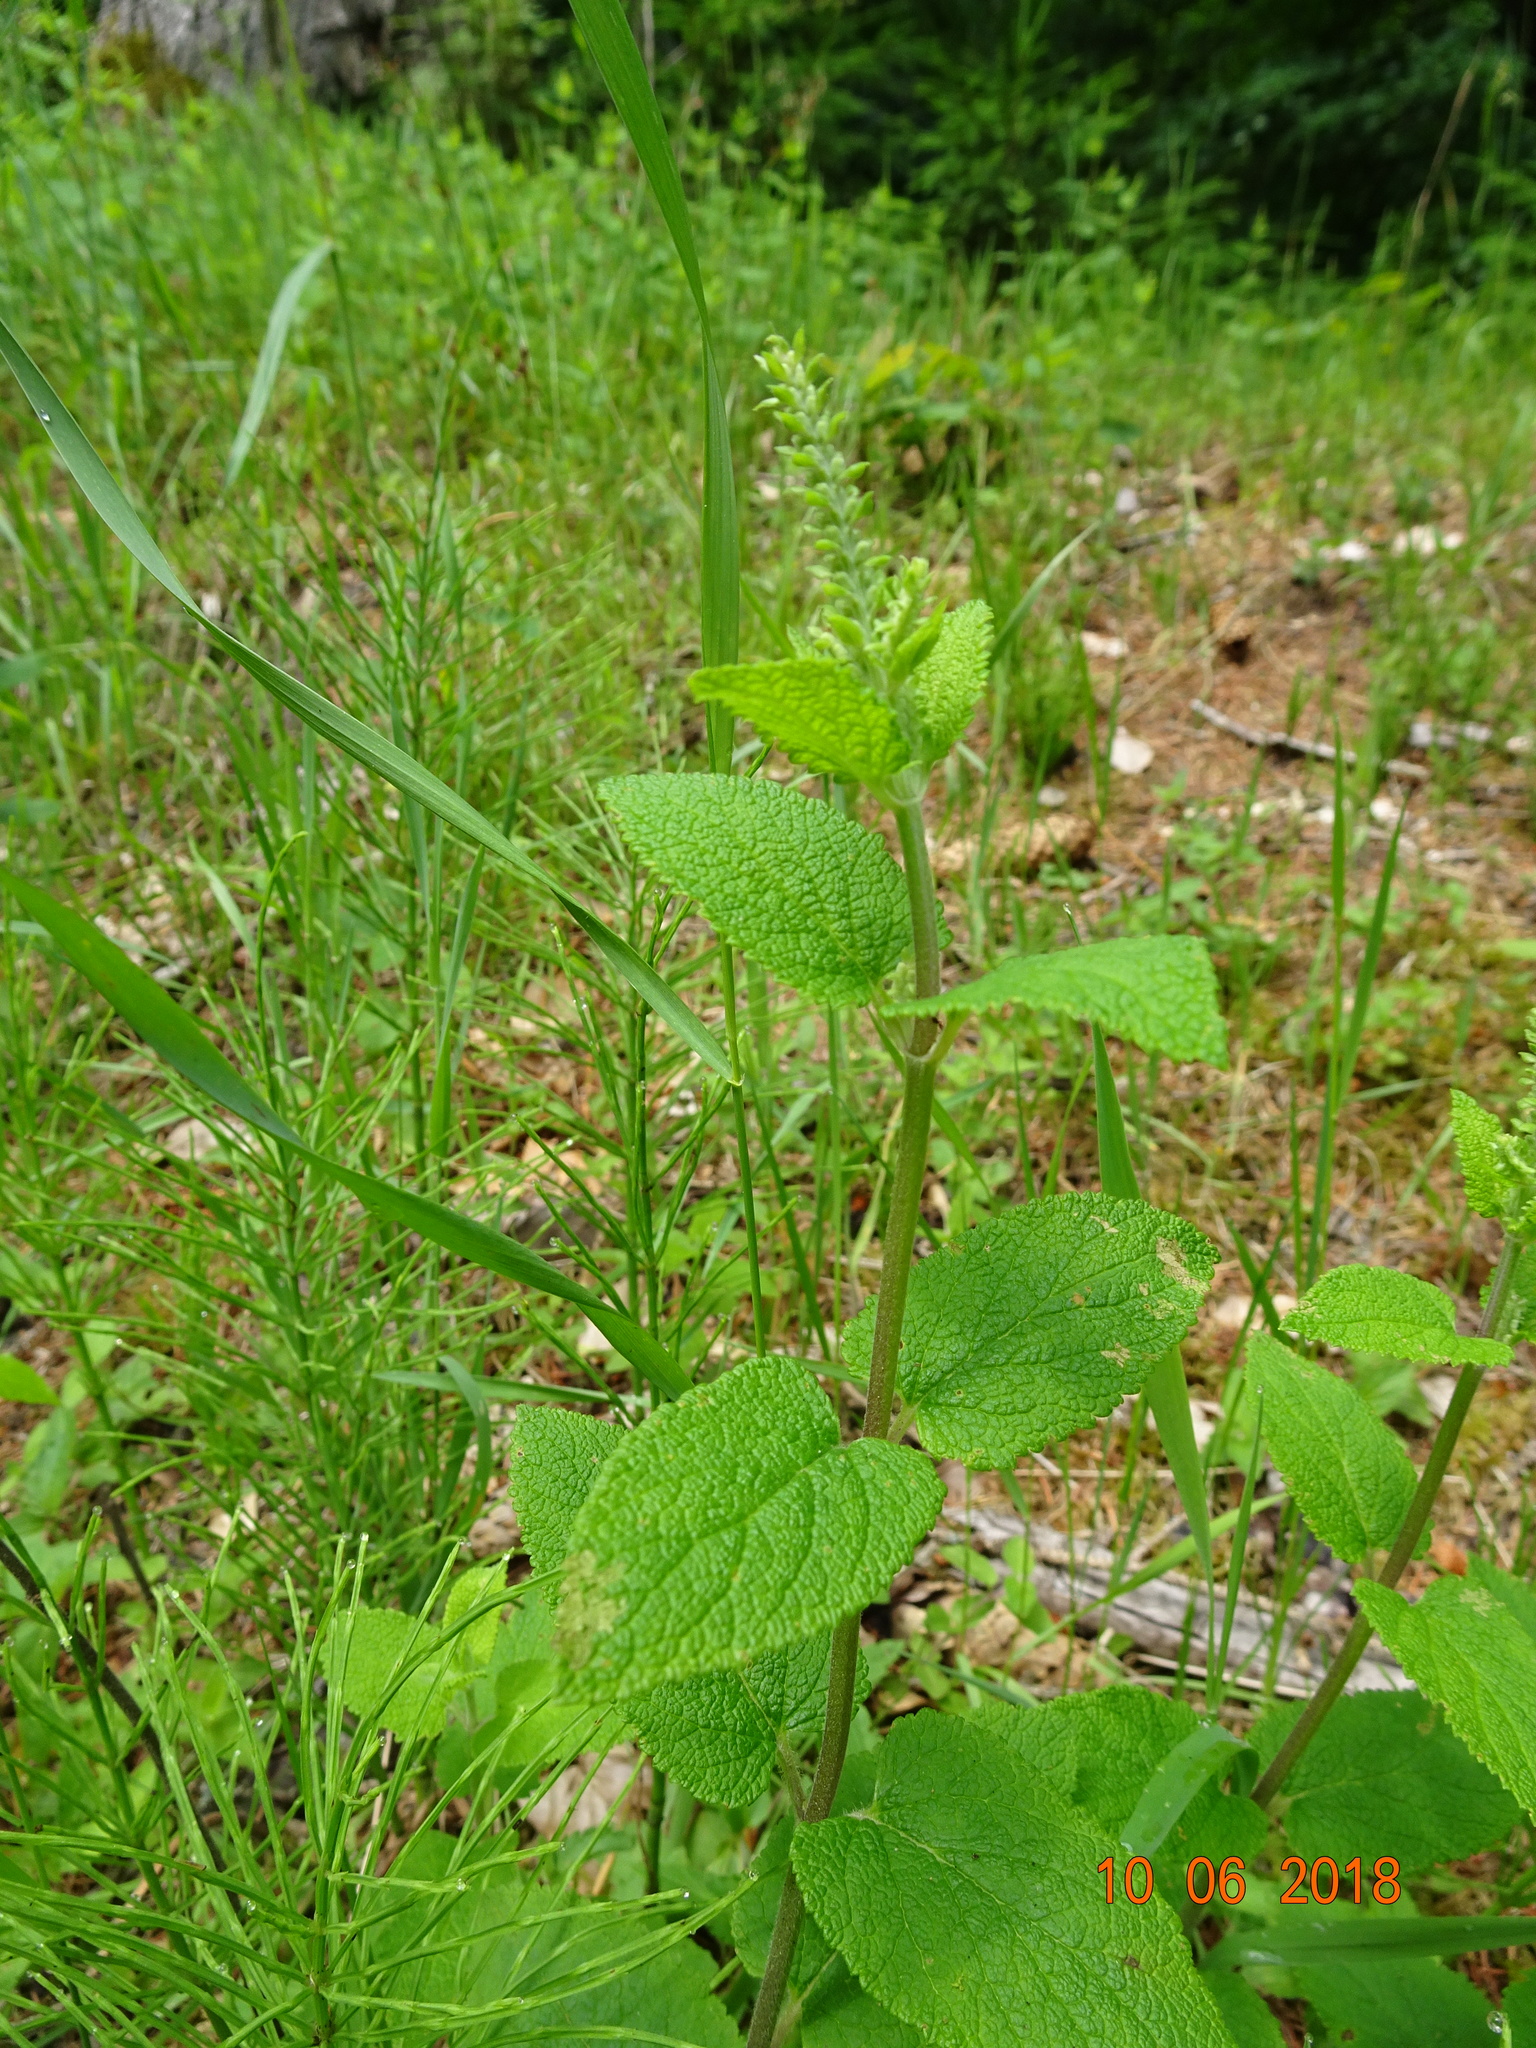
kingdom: Plantae
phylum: Tracheophyta
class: Magnoliopsida
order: Lamiales
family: Lamiaceae
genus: Teucrium
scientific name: Teucrium scorodonia
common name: Woodland germander
